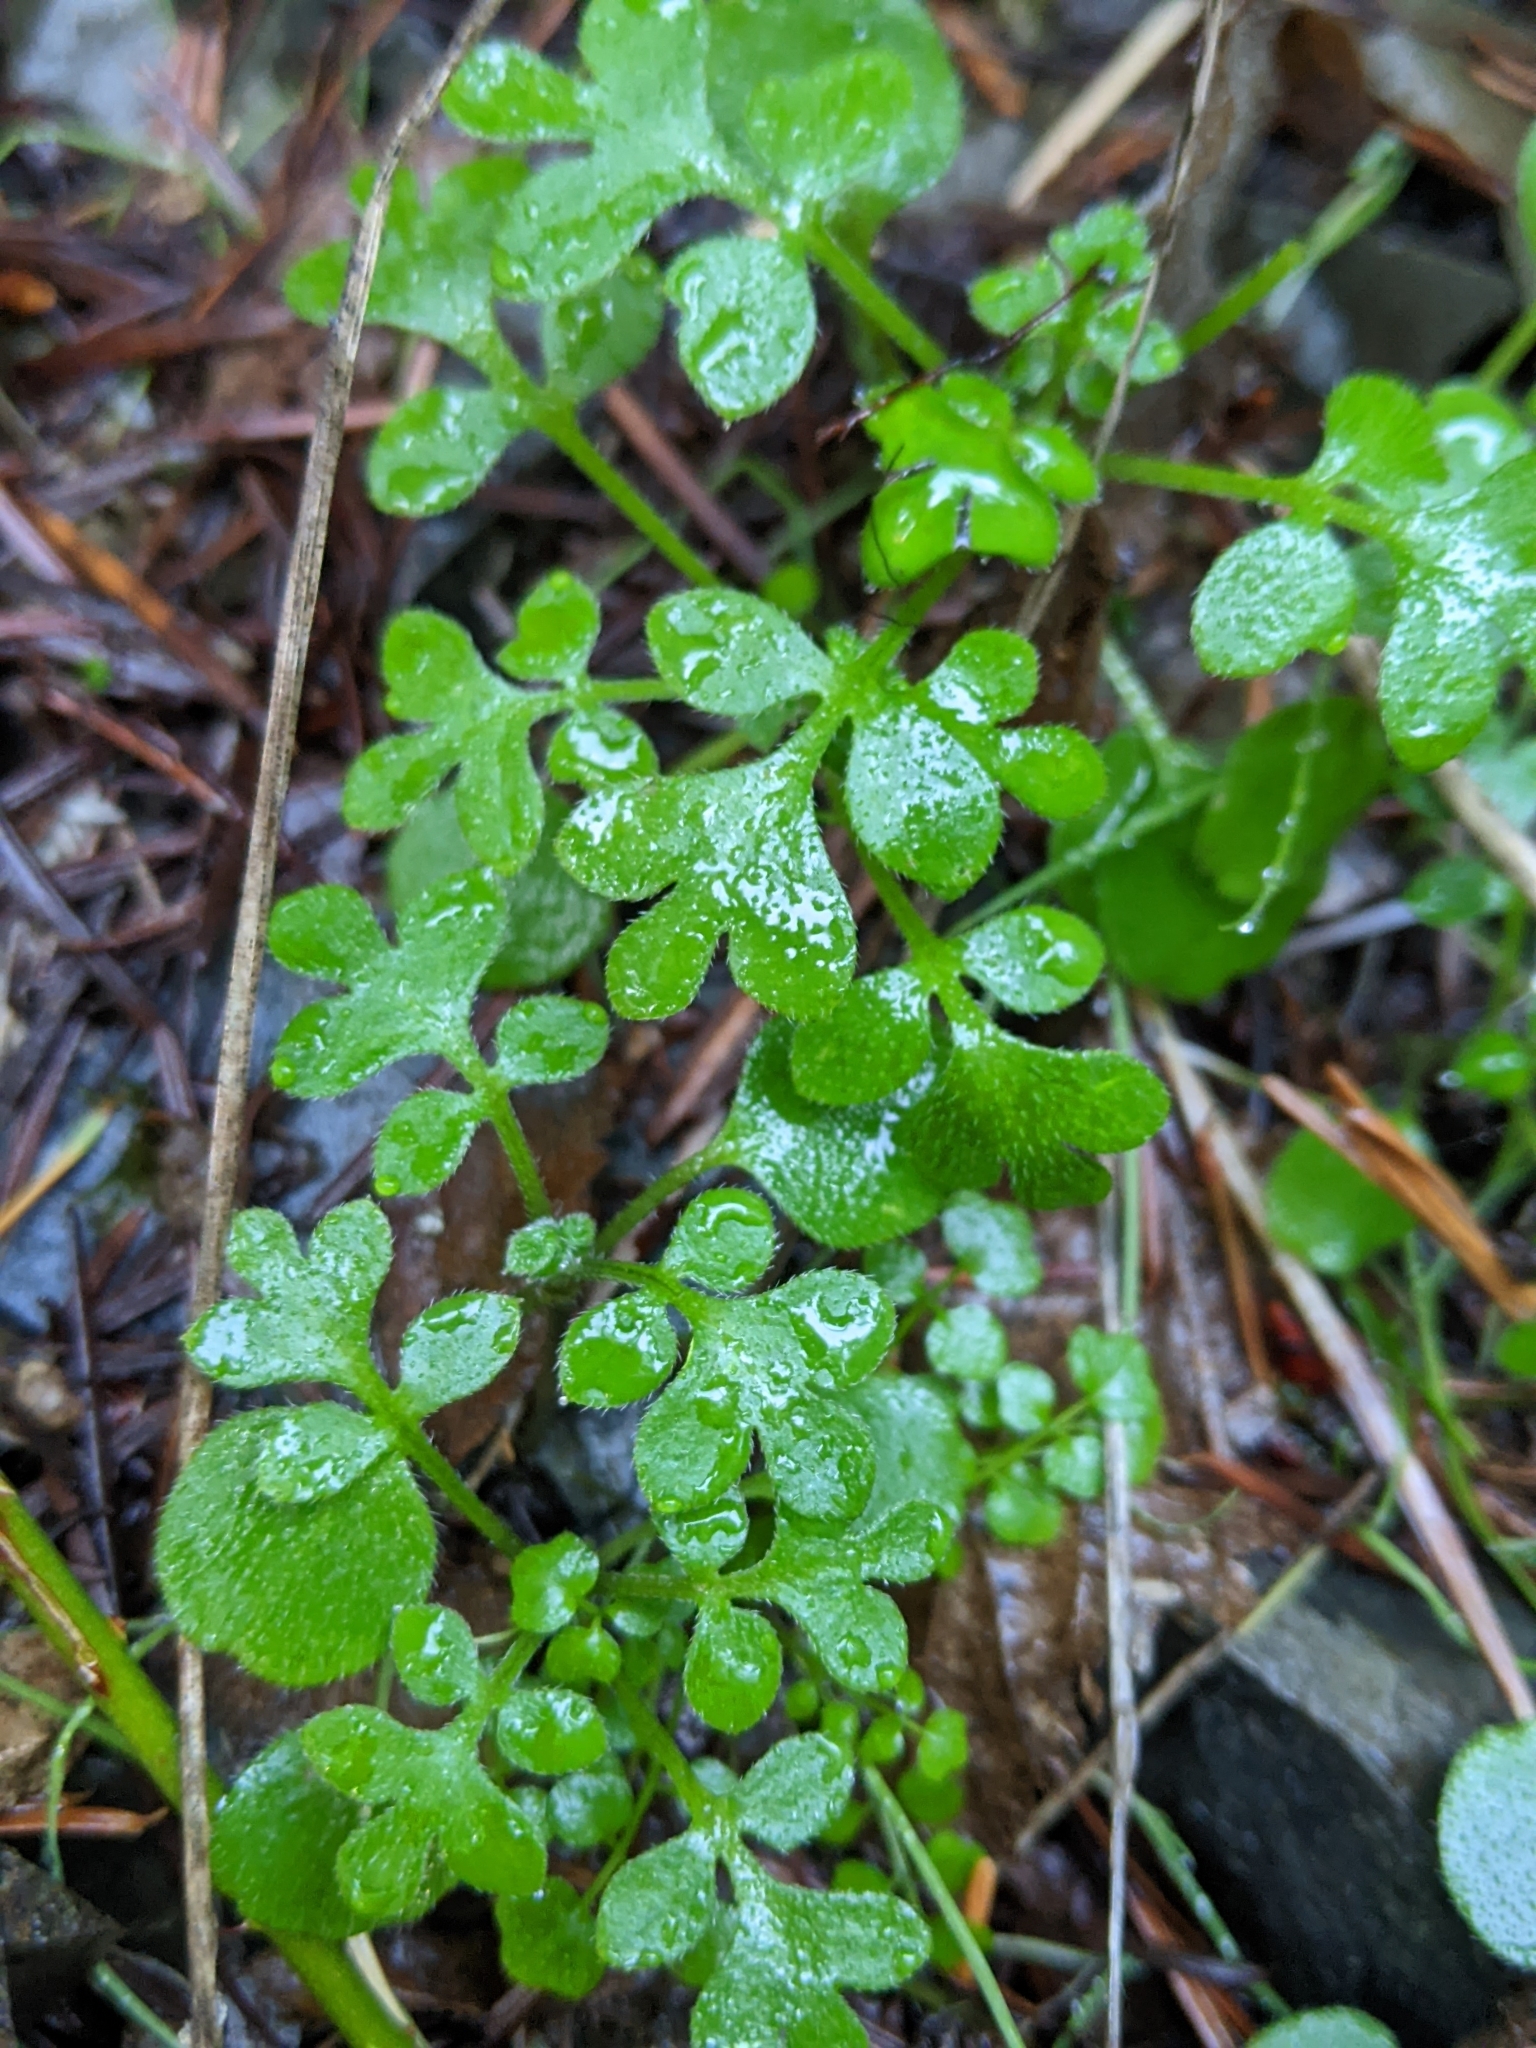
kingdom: Plantae
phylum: Tracheophyta
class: Magnoliopsida
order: Boraginales
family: Hydrophyllaceae
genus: Nemophila
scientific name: Nemophila parviflora
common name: Small-flowered baby-blue-eyes
